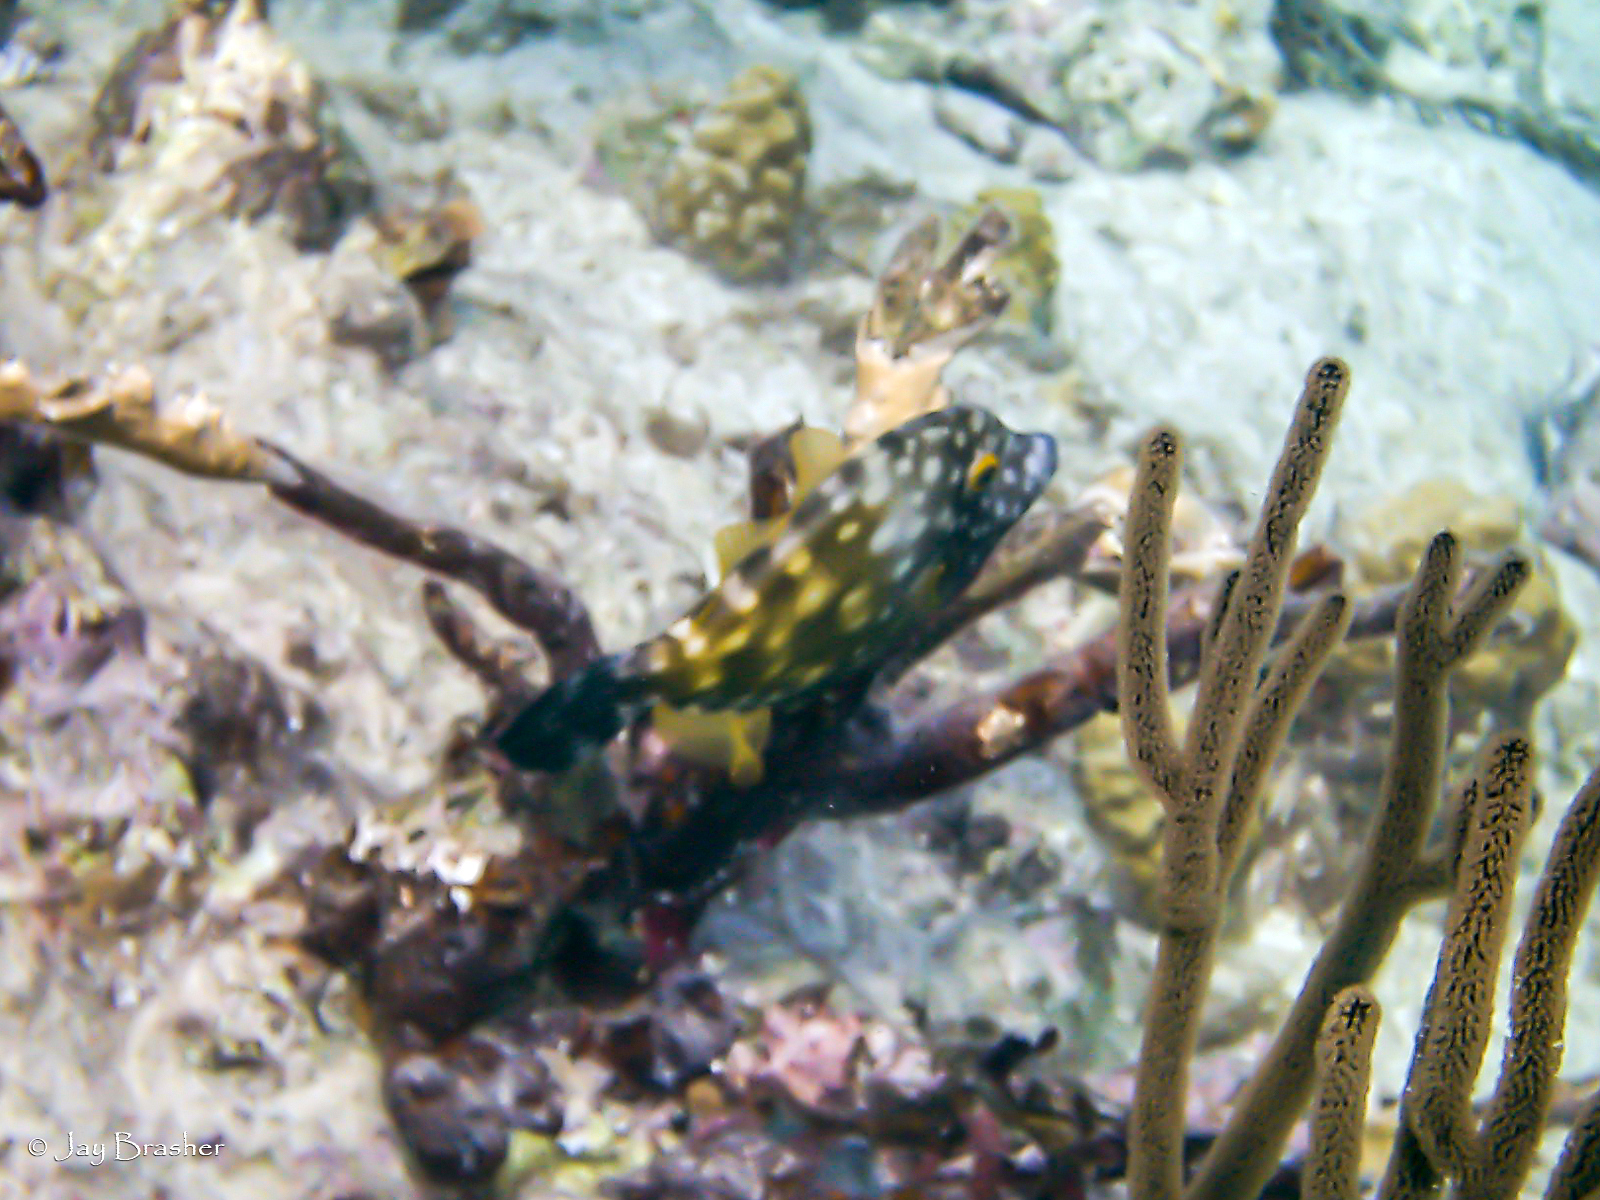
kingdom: Animalia
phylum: Chordata
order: Tetraodontiformes
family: Monacanthidae
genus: Cantherhines
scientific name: Cantherhines macrocerus
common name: Whitespotted filefish
